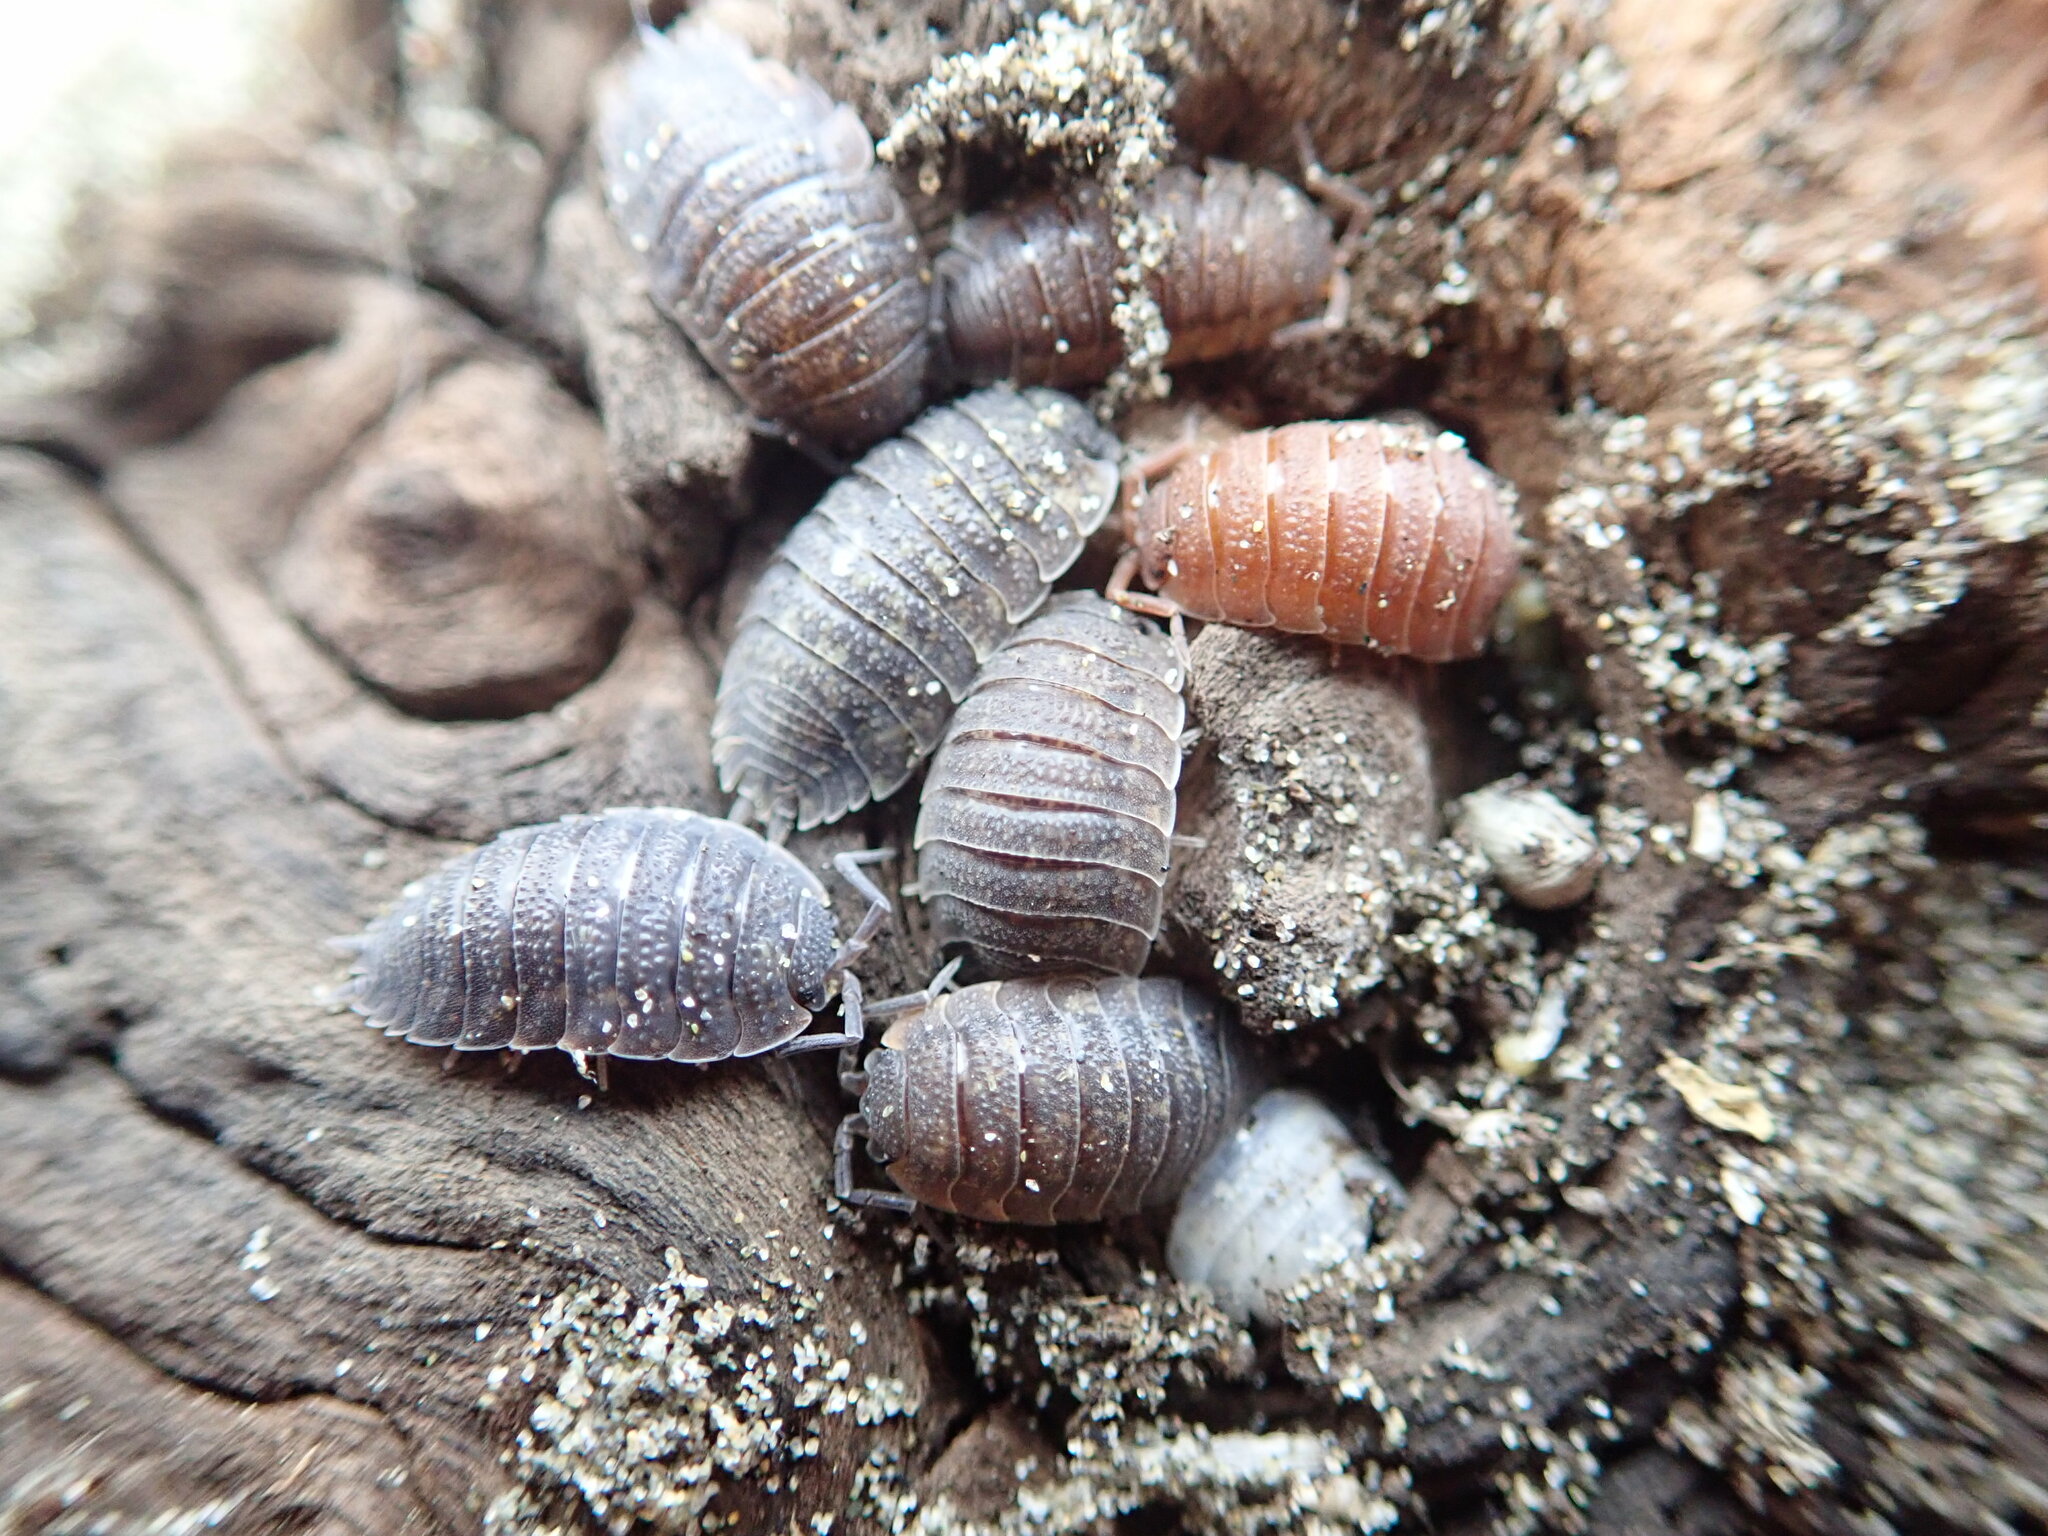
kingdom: Animalia
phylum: Arthropoda
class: Malacostraca
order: Isopoda
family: Porcellionidae
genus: Porcellio
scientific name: Porcellio scaber
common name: Common rough woodlouse
